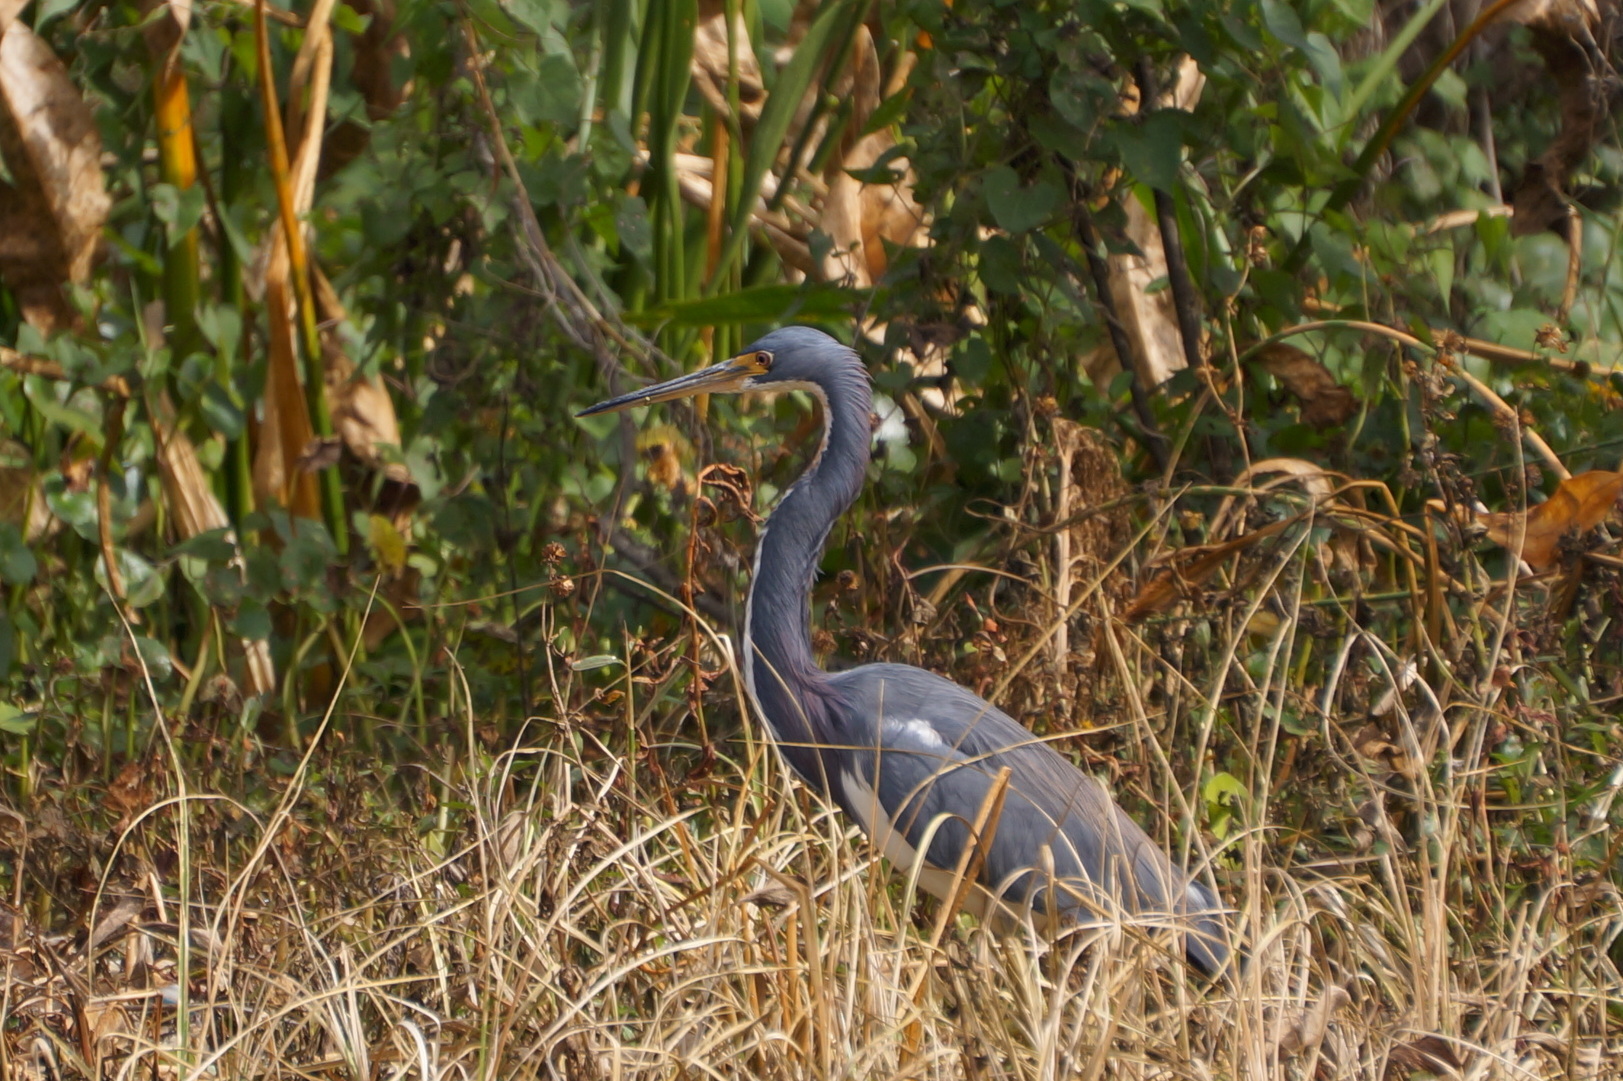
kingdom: Animalia
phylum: Chordata
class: Aves
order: Pelecaniformes
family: Ardeidae
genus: Egretta
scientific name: Egretta tricolor
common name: Tricolored heron
